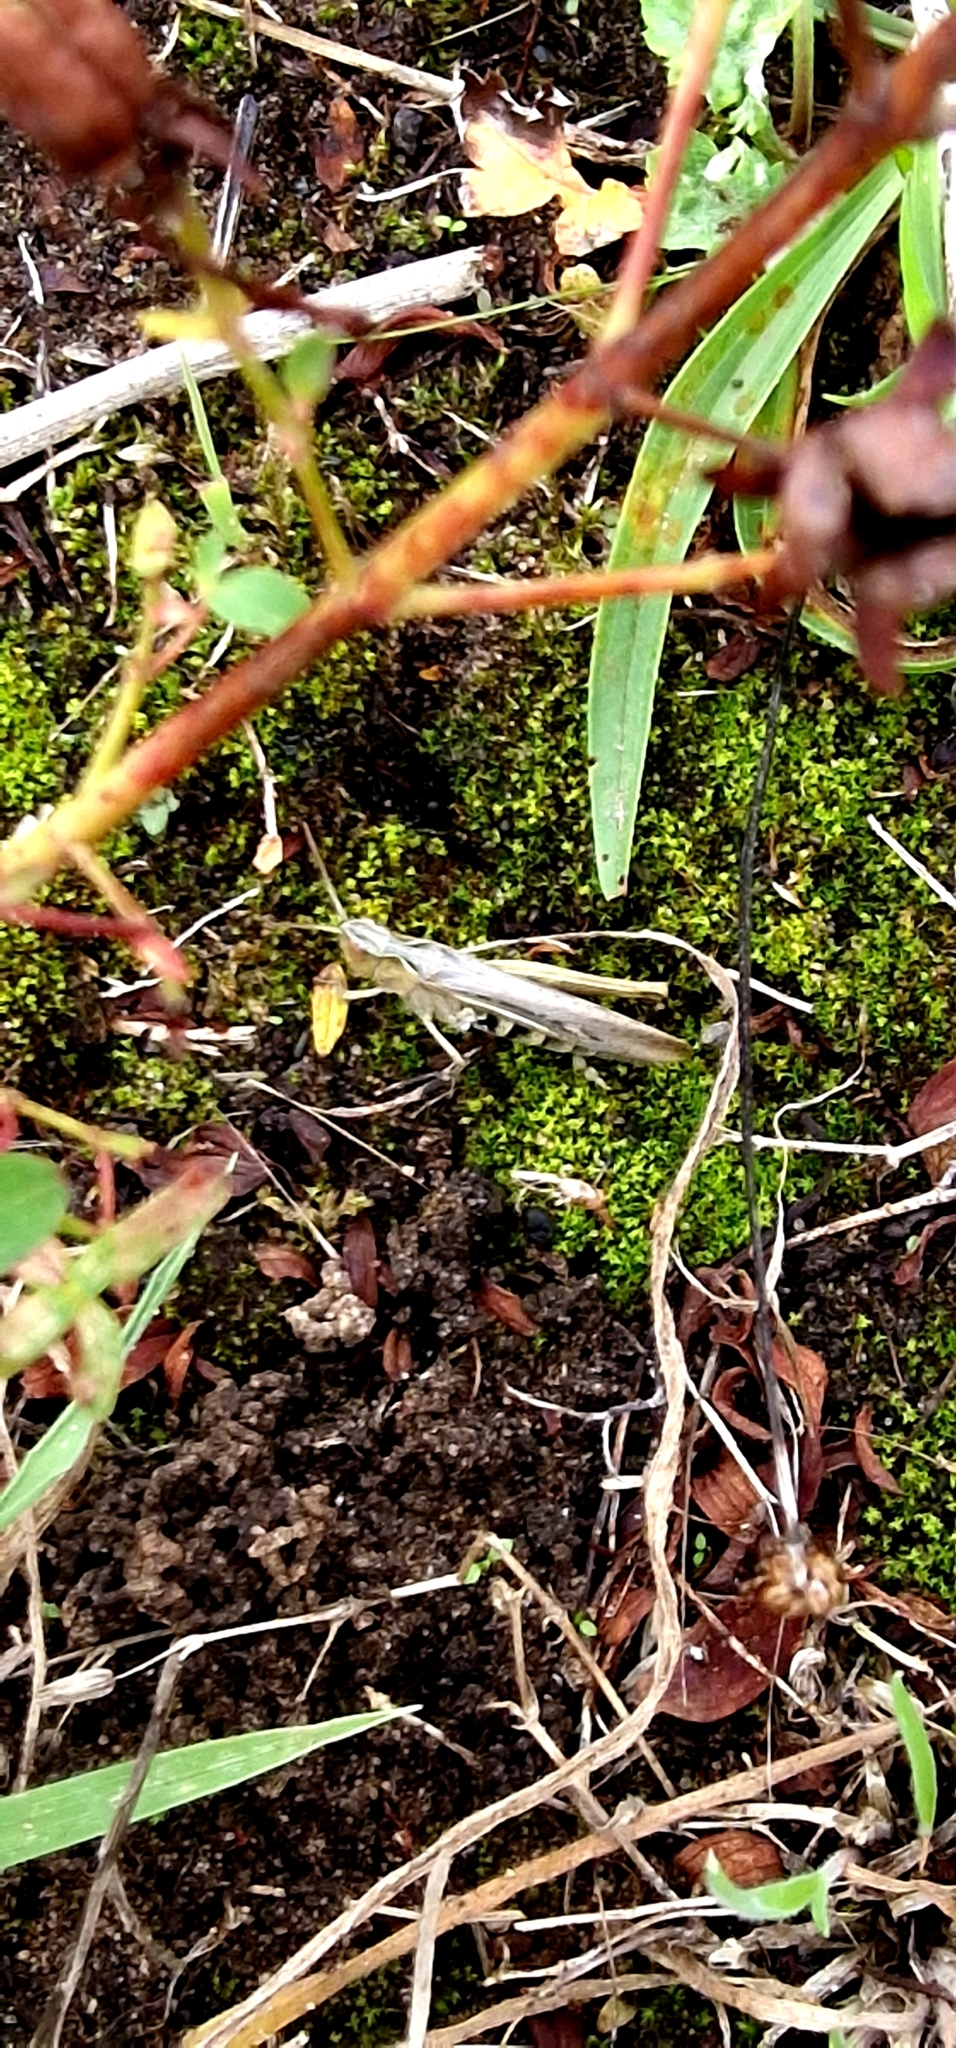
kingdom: Animalia
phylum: Arthropoda
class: Insecta
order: Orthoptera
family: Acrididae
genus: Chorthippus
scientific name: Chorthippus brunneus
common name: Field grasshopper
